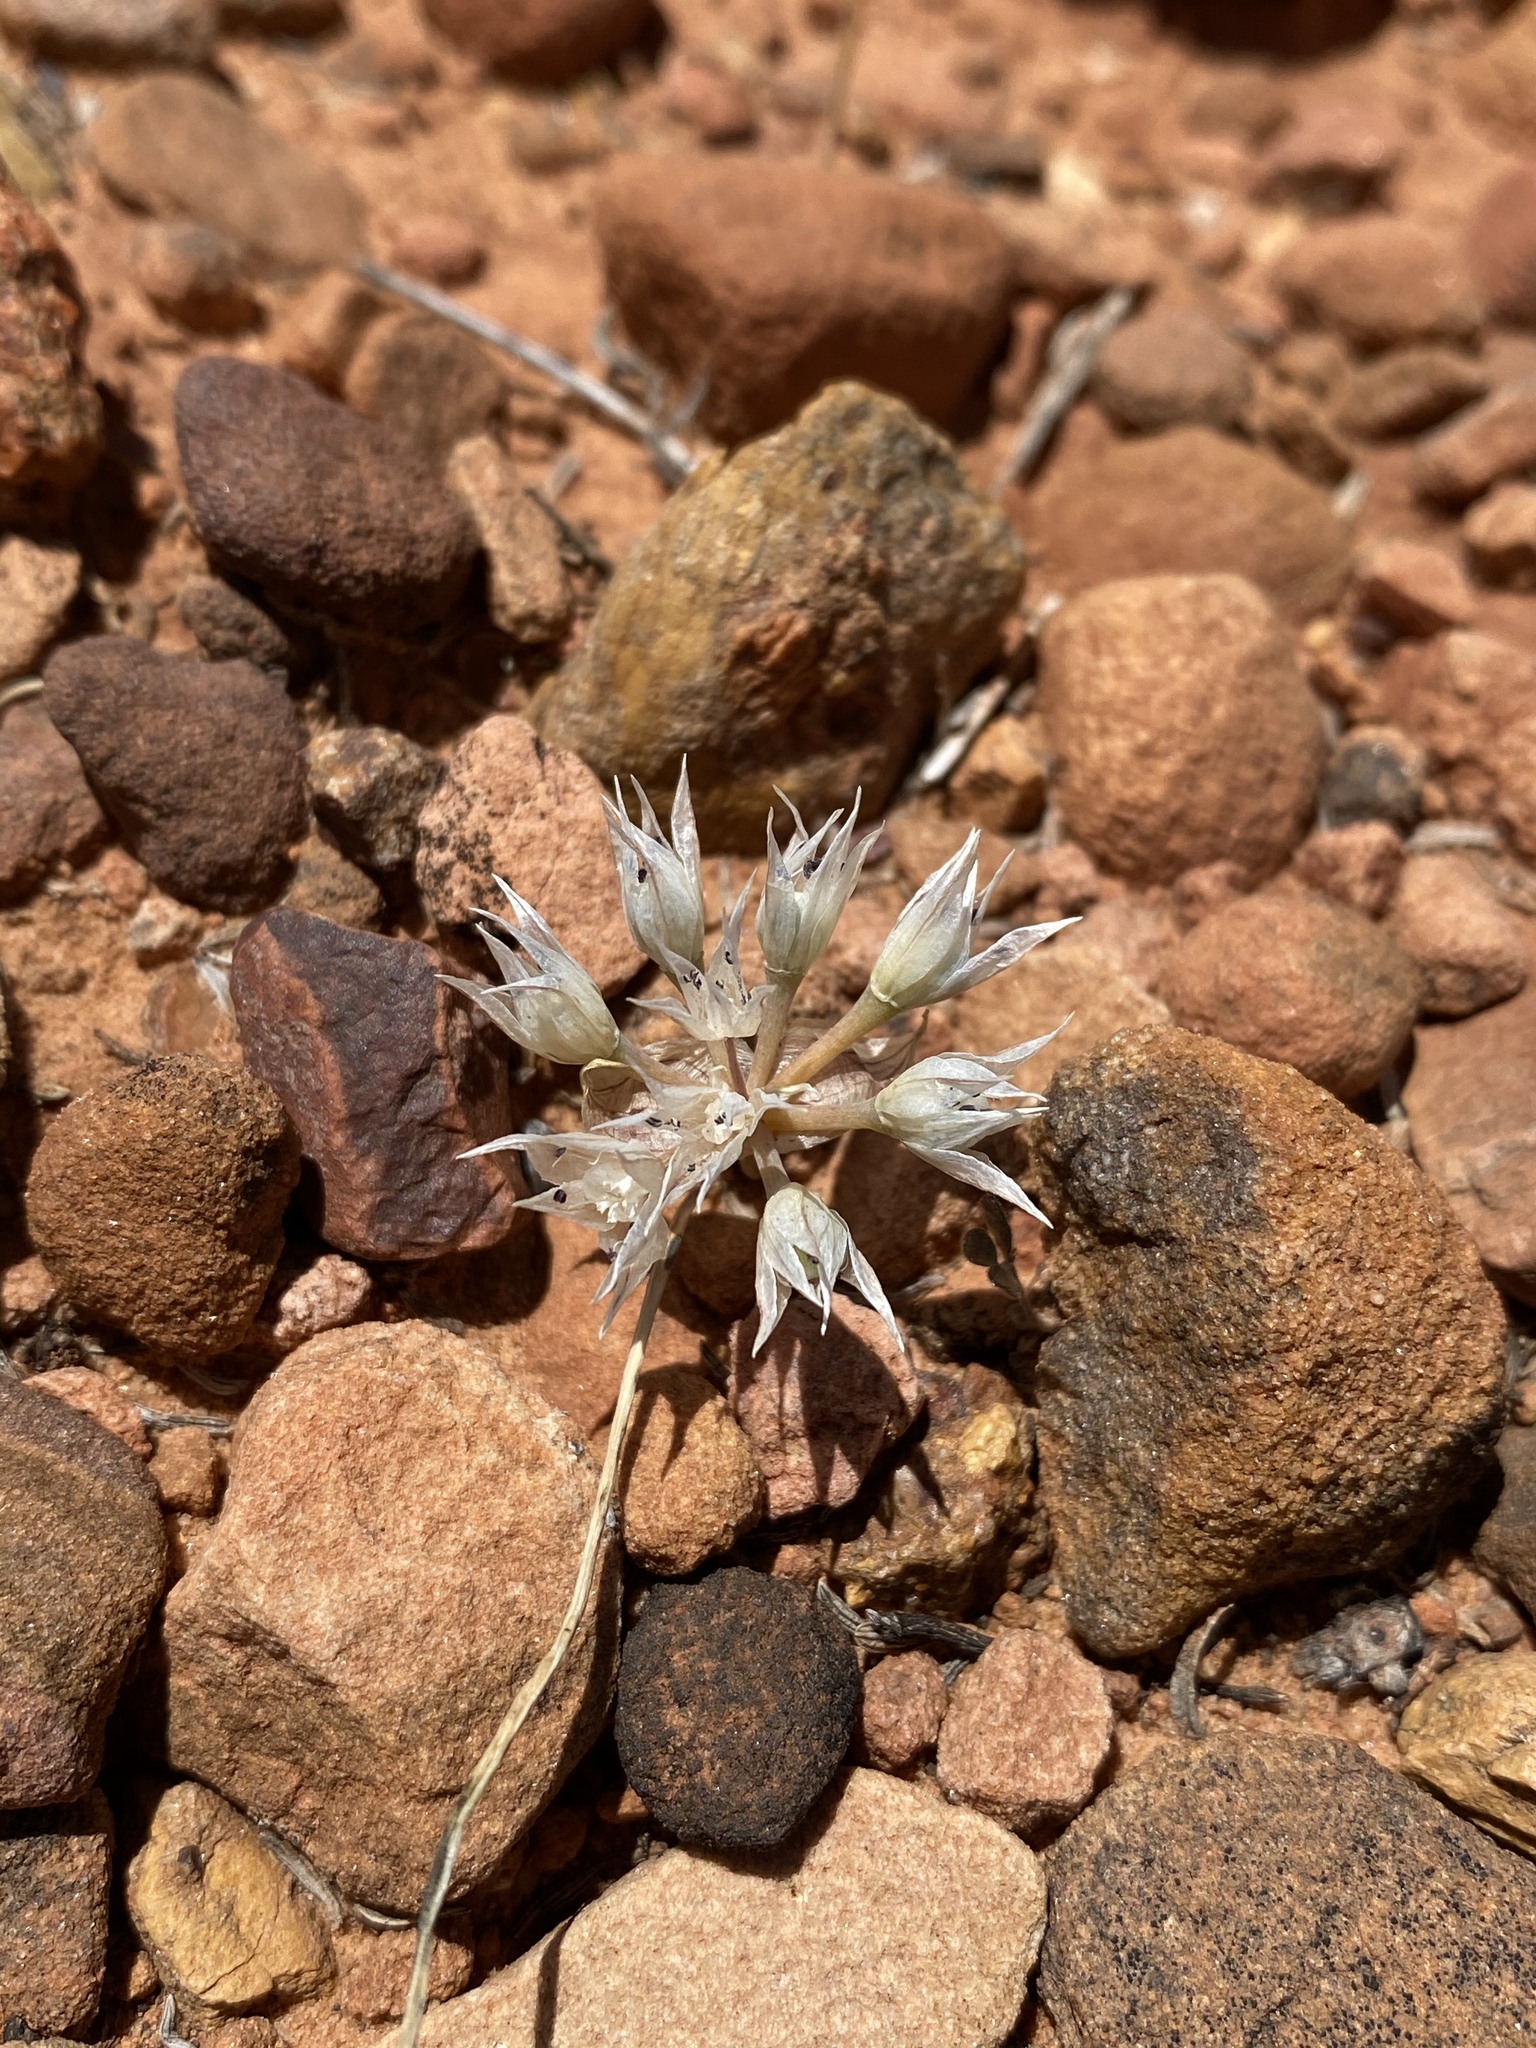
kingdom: Plantae
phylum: Tracheophyta
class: Liliopsida
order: Asparagales
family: Amaryllidaceae
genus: Allium
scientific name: Allium nevadense
